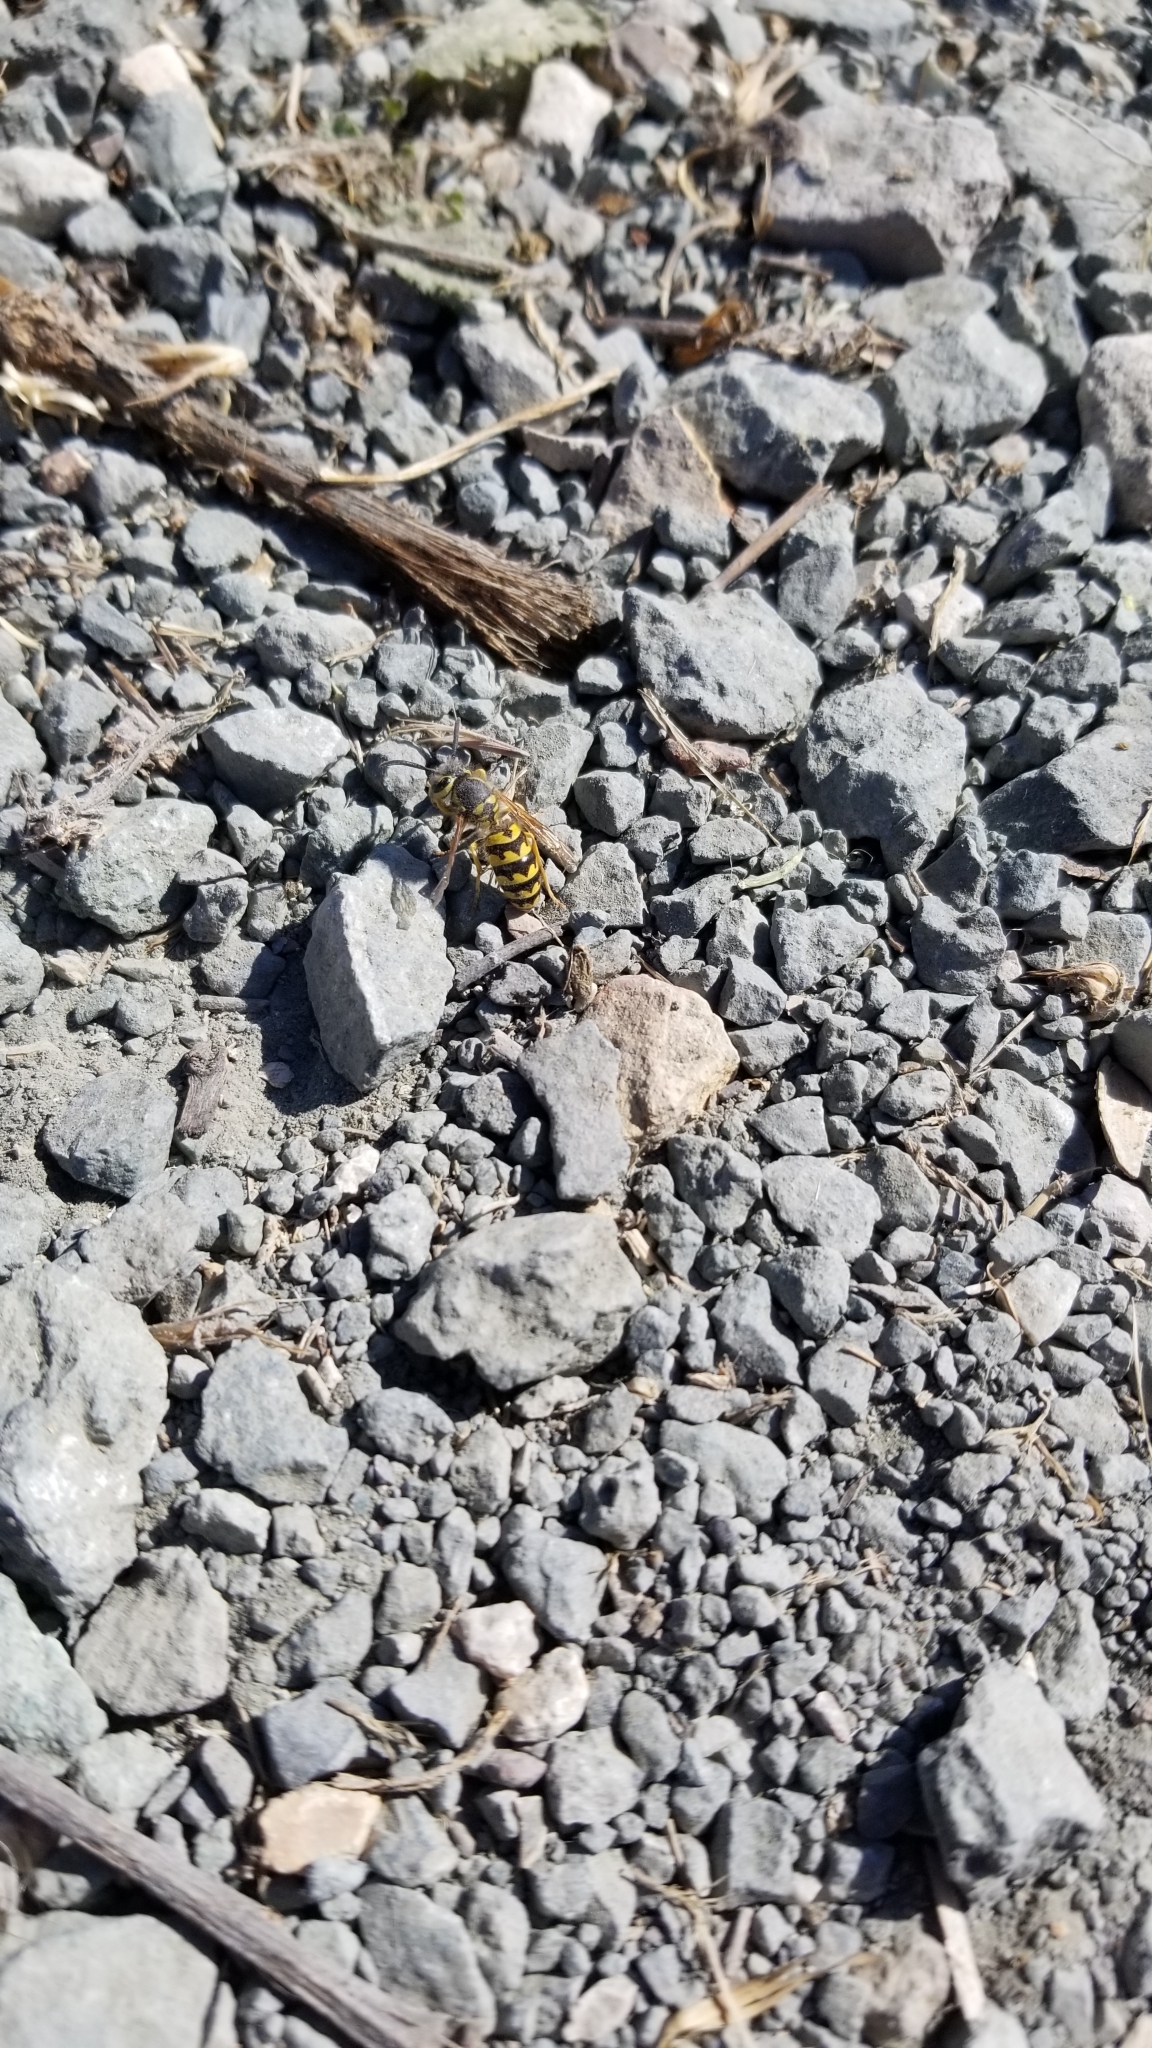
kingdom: Animalia
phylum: Arthropoda
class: Insecta
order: Hymenoptera
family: Vespidae
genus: Vespula
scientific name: Vespula pensylvanica
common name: Western yellowjacket
